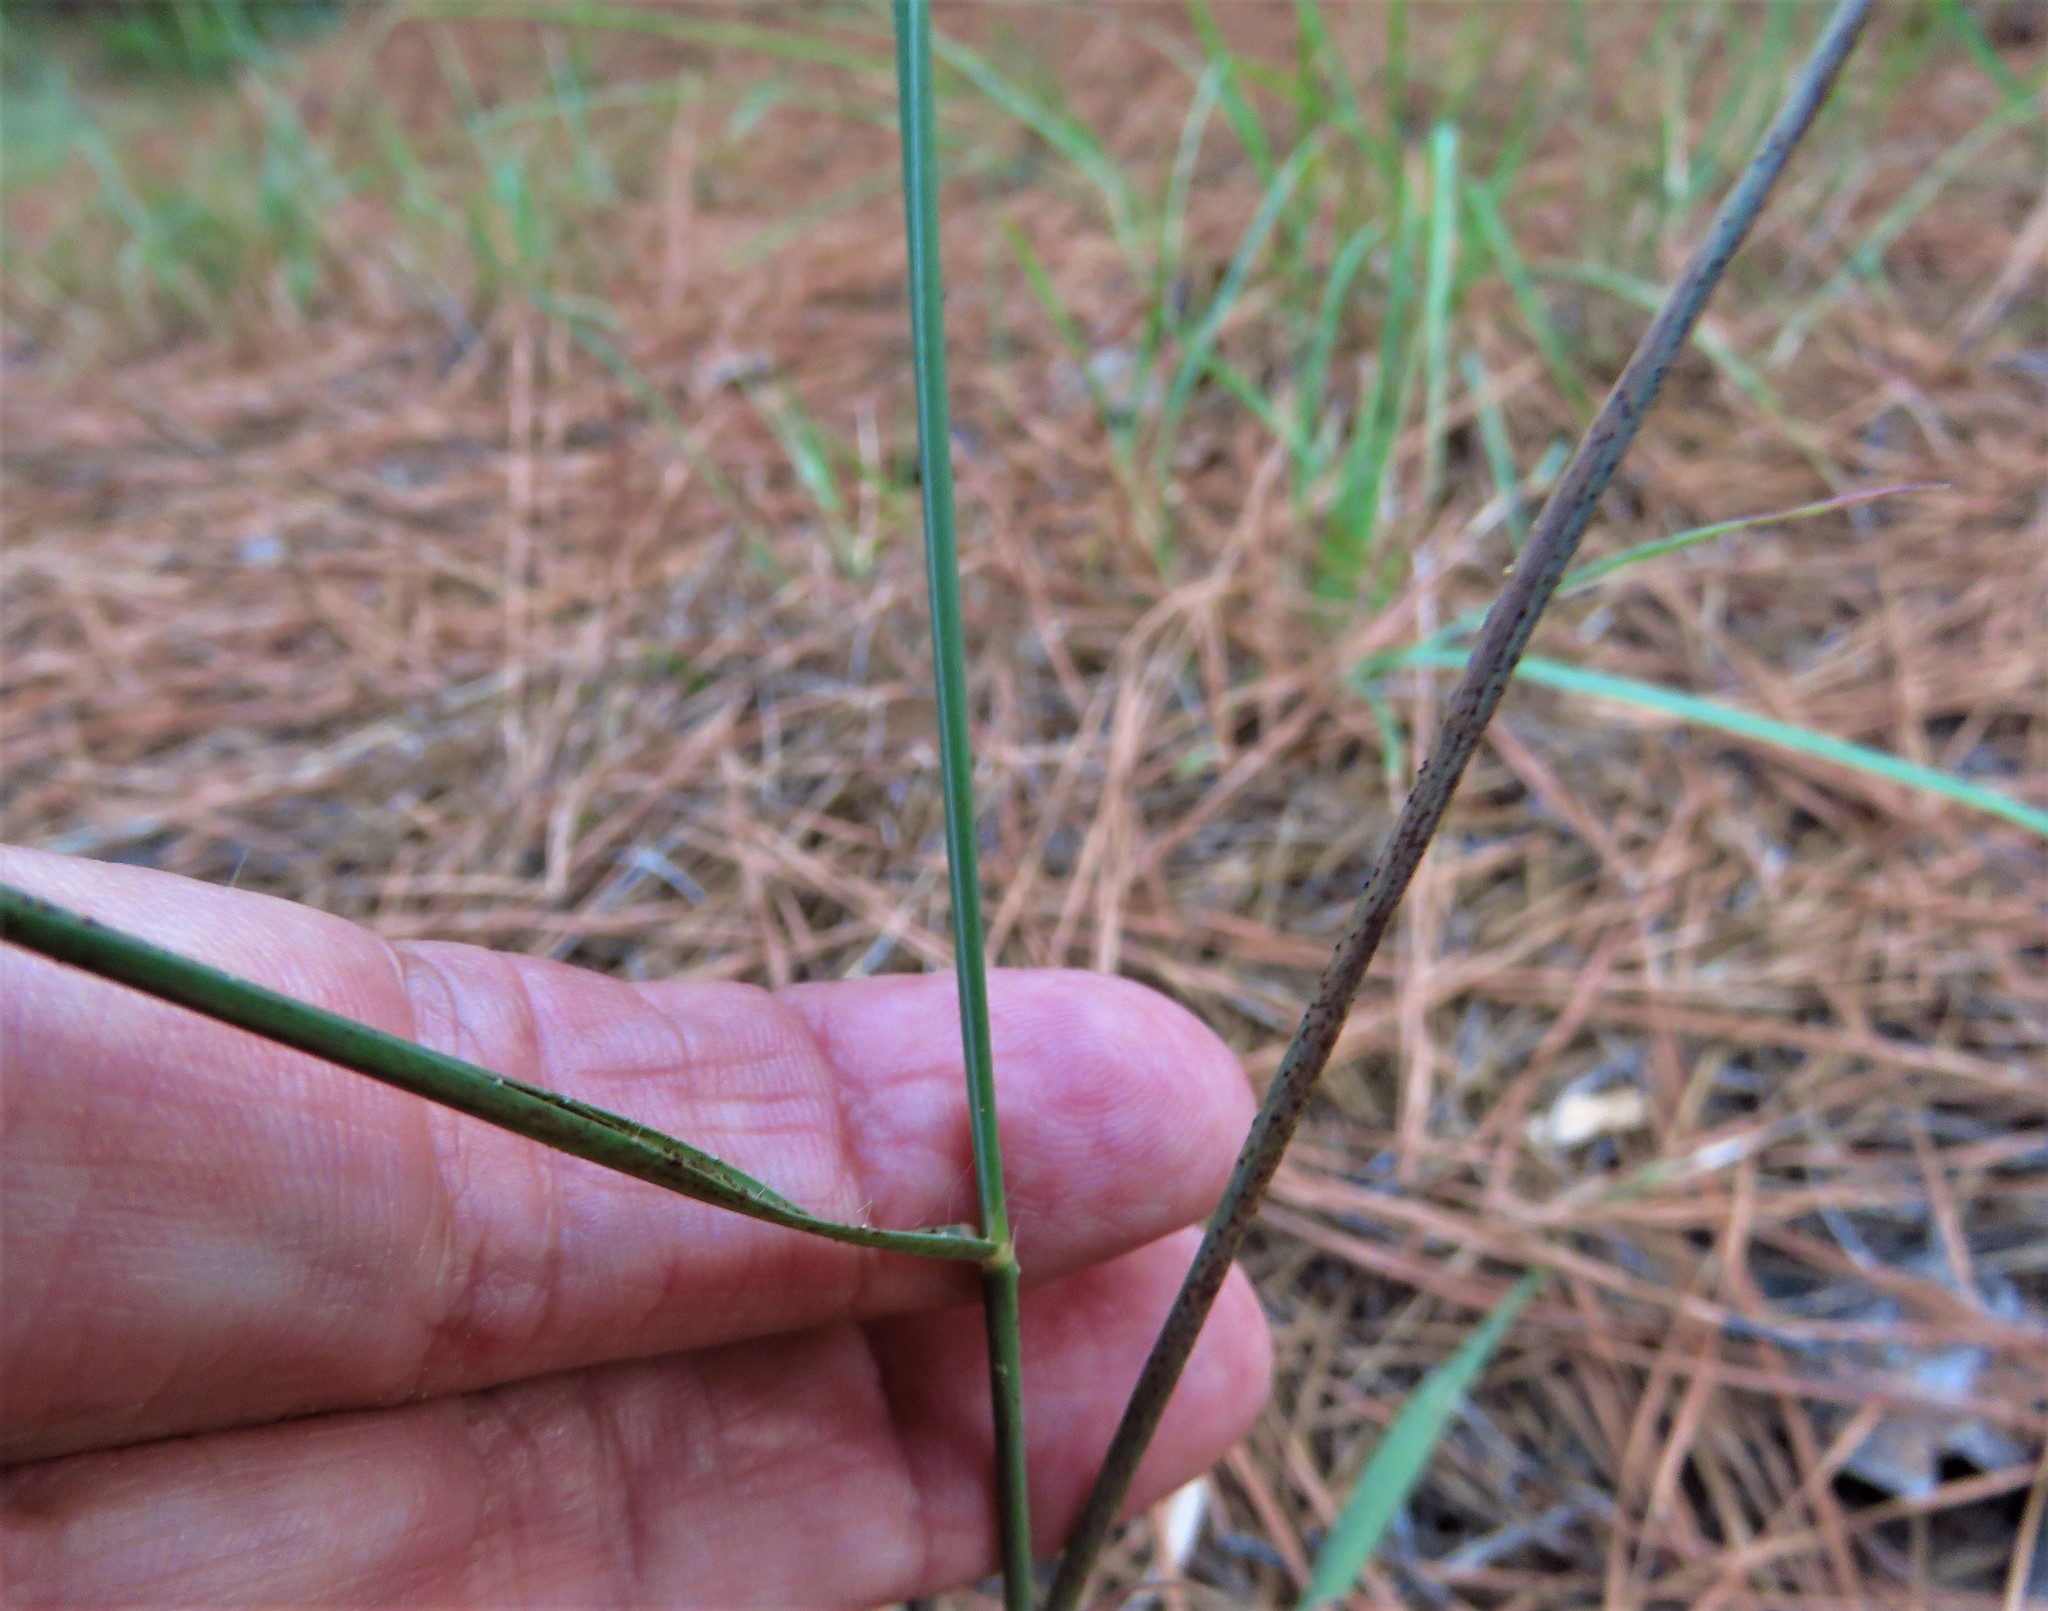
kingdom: Plantae
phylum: Tracheophyta
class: Liliopsida
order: Poales
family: Poaceae
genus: Bouteloua
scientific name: Bouteloua curtipendula
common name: Side-oats grama
